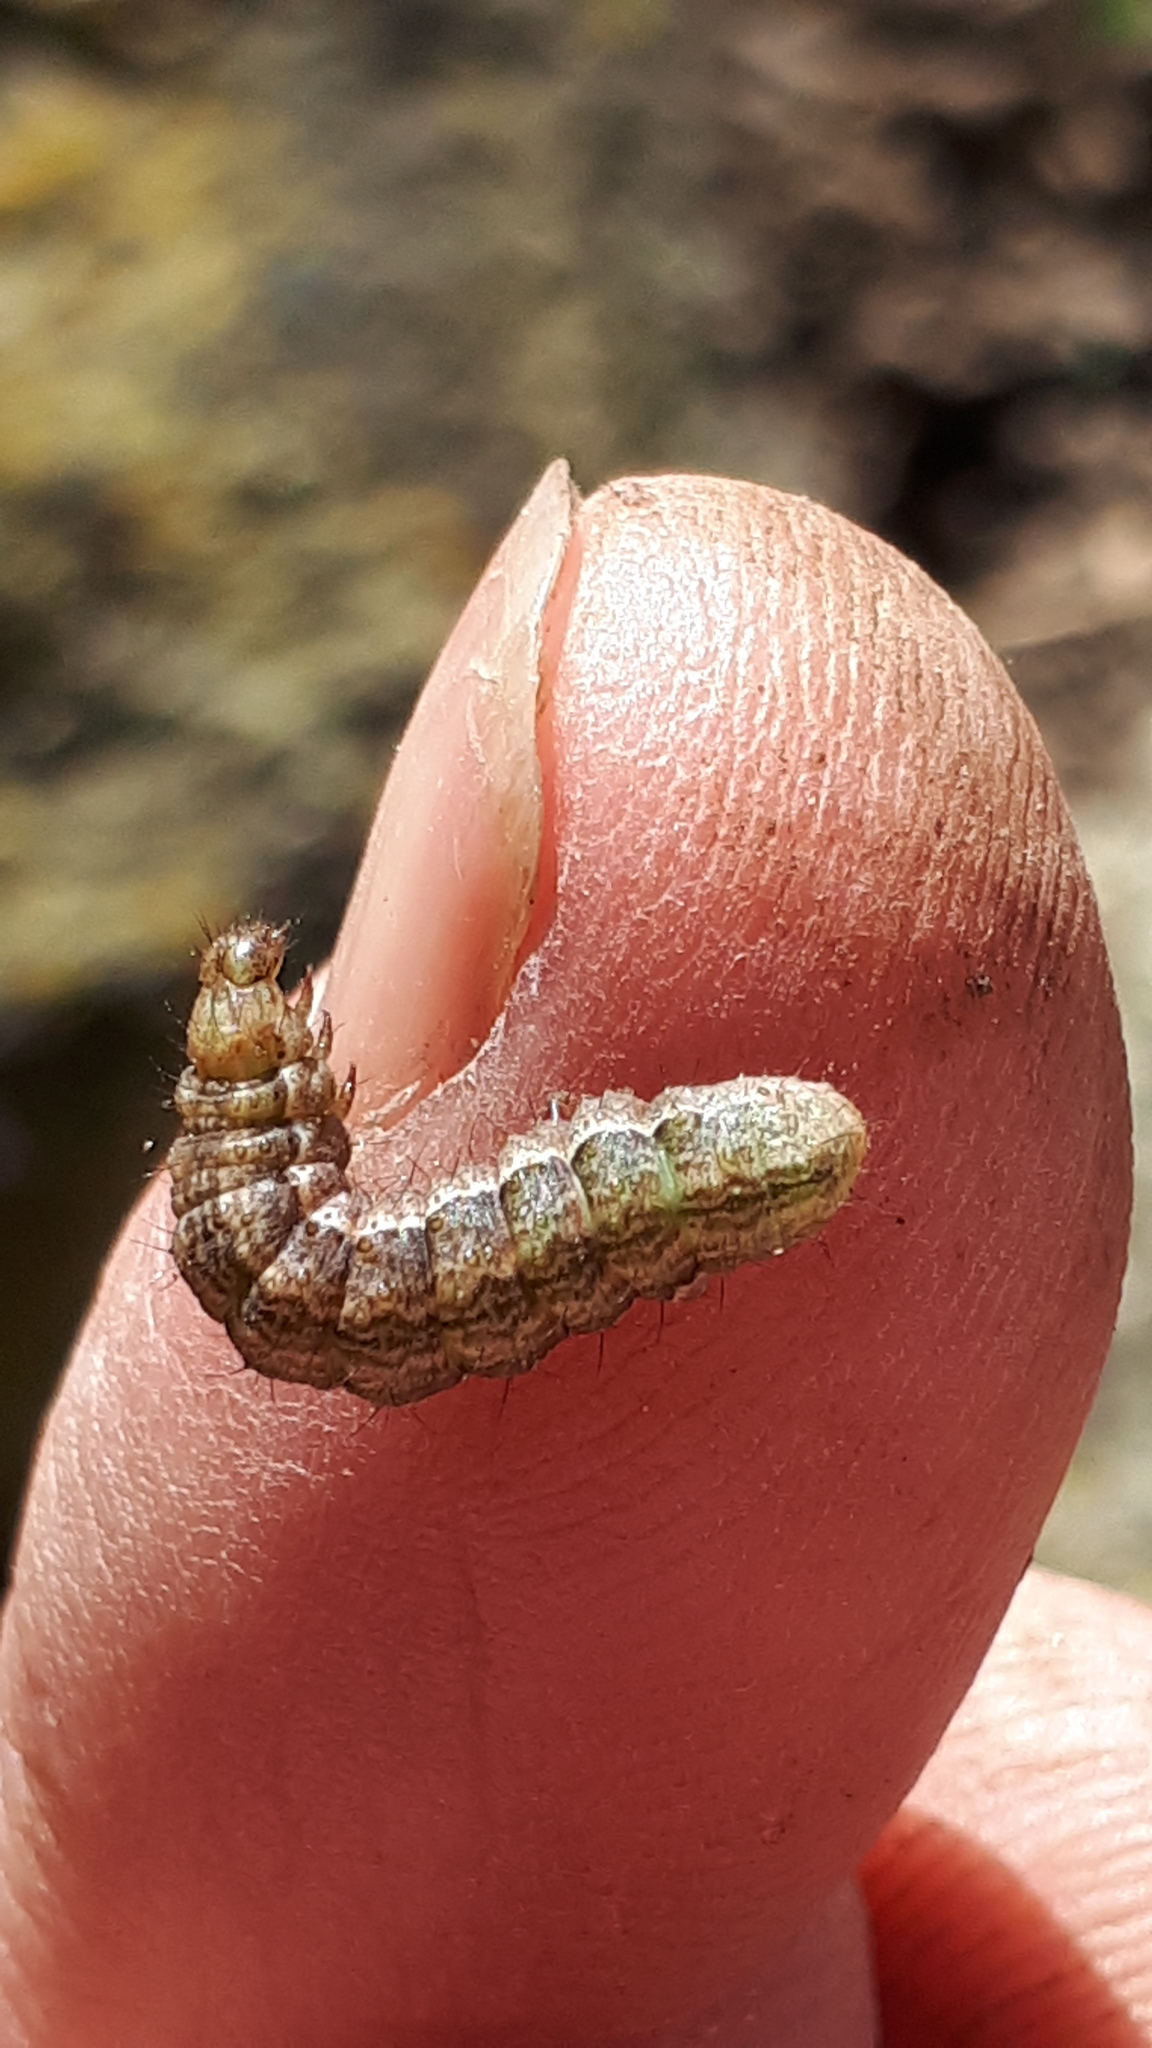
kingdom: Animalia
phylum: Arthropoda
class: Insecta
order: Lepidoptera
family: Noctuidae
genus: Macdunnoughia
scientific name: Macdunnoughia confusa
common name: Dewick's plusia
